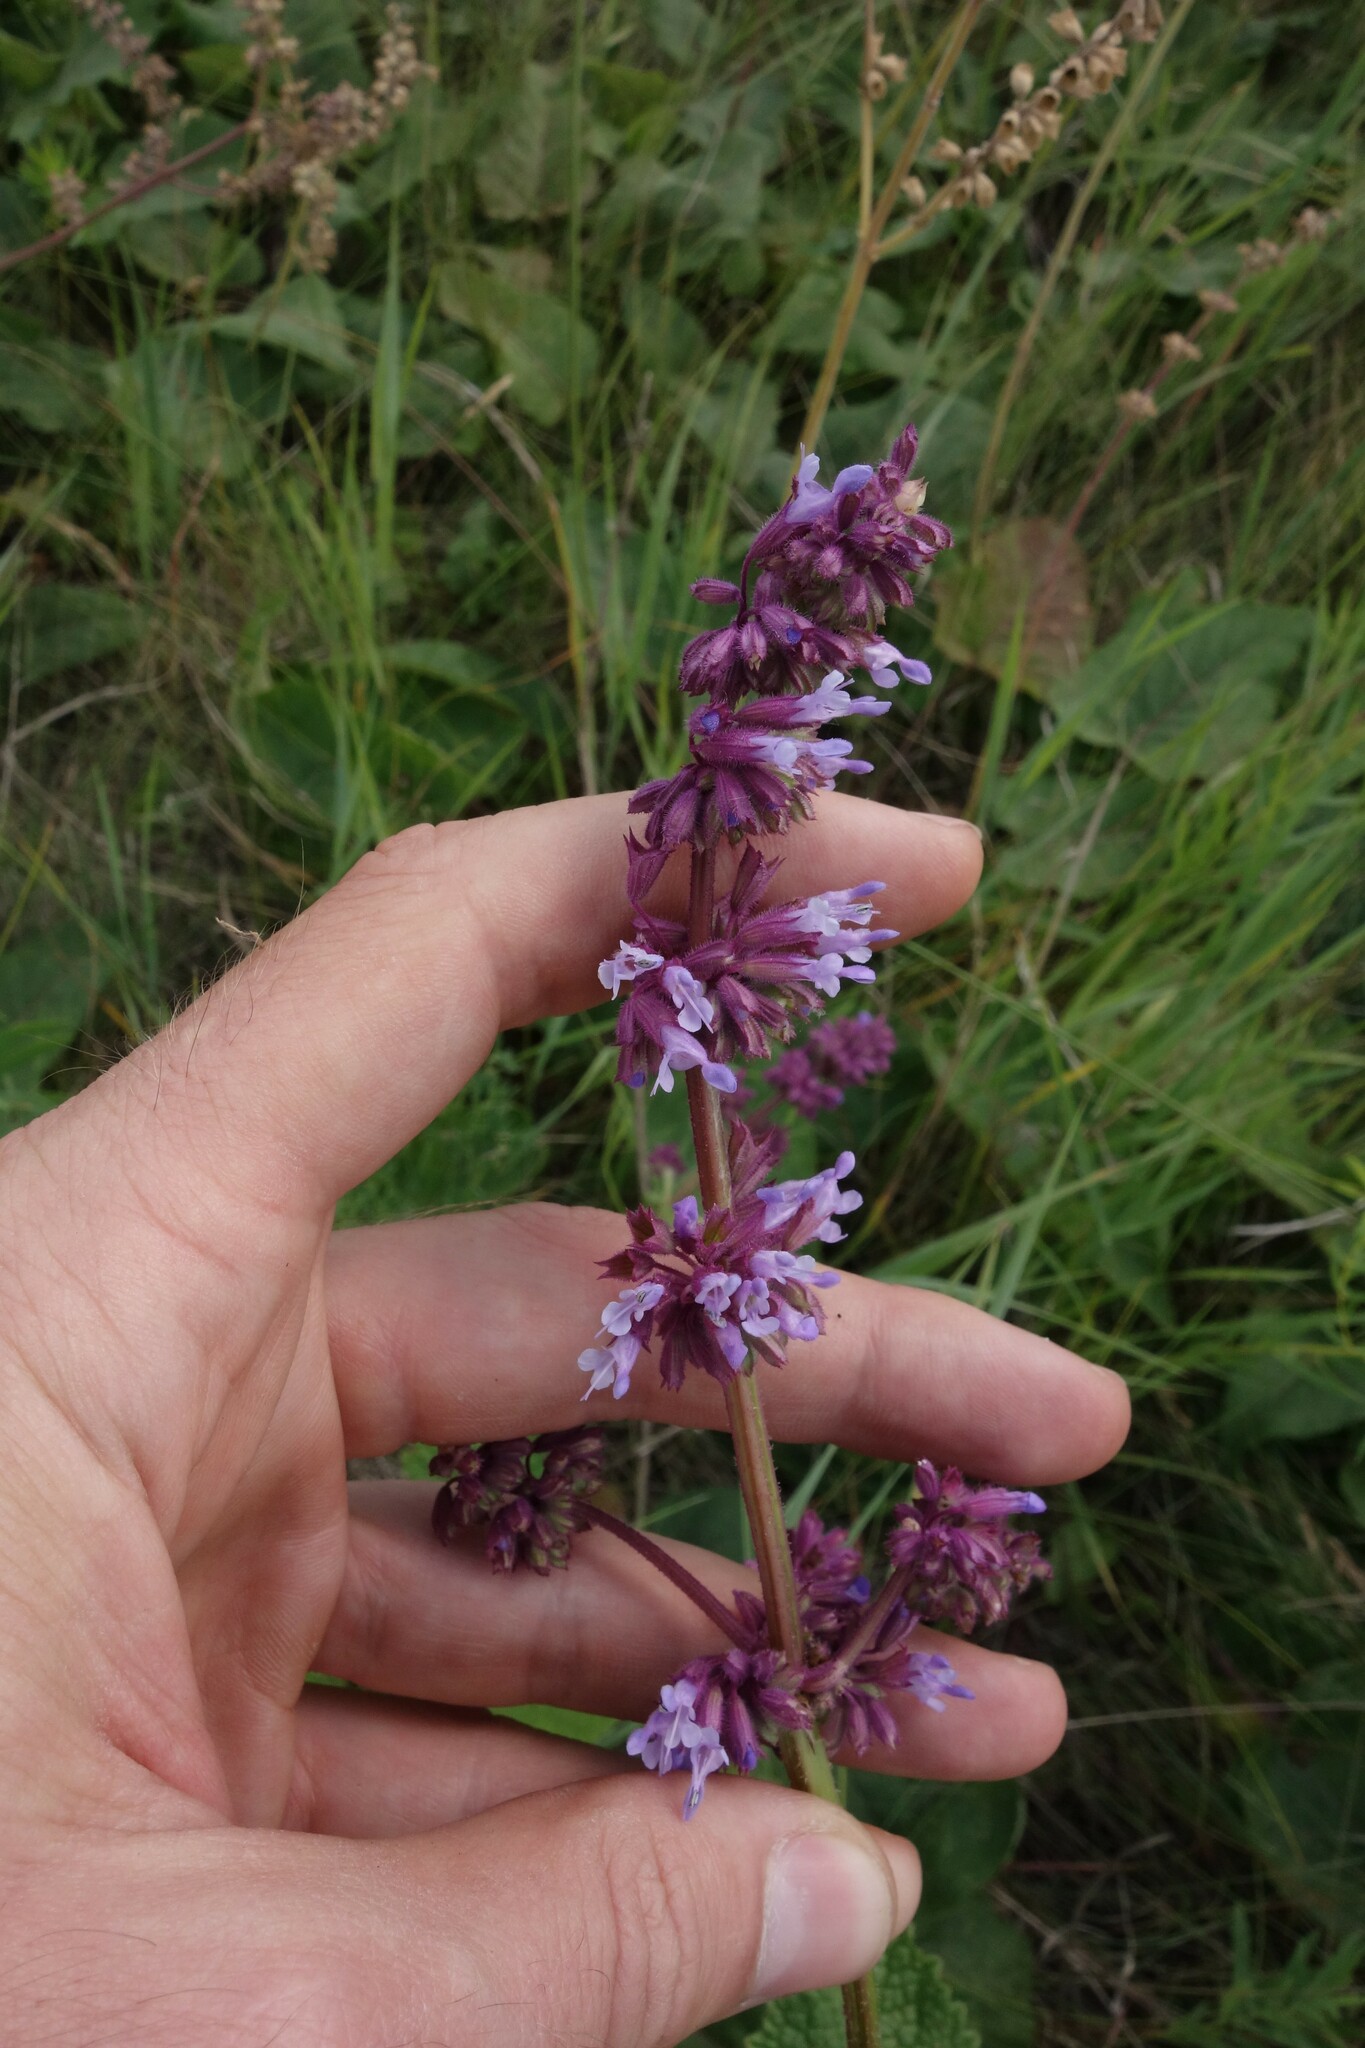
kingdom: Plantae
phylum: Tracheophyta
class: Magnoliopsida
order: Lamiales
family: Lamiaceae
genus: Salvia
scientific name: Salvia verticillata
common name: Whorled clary
